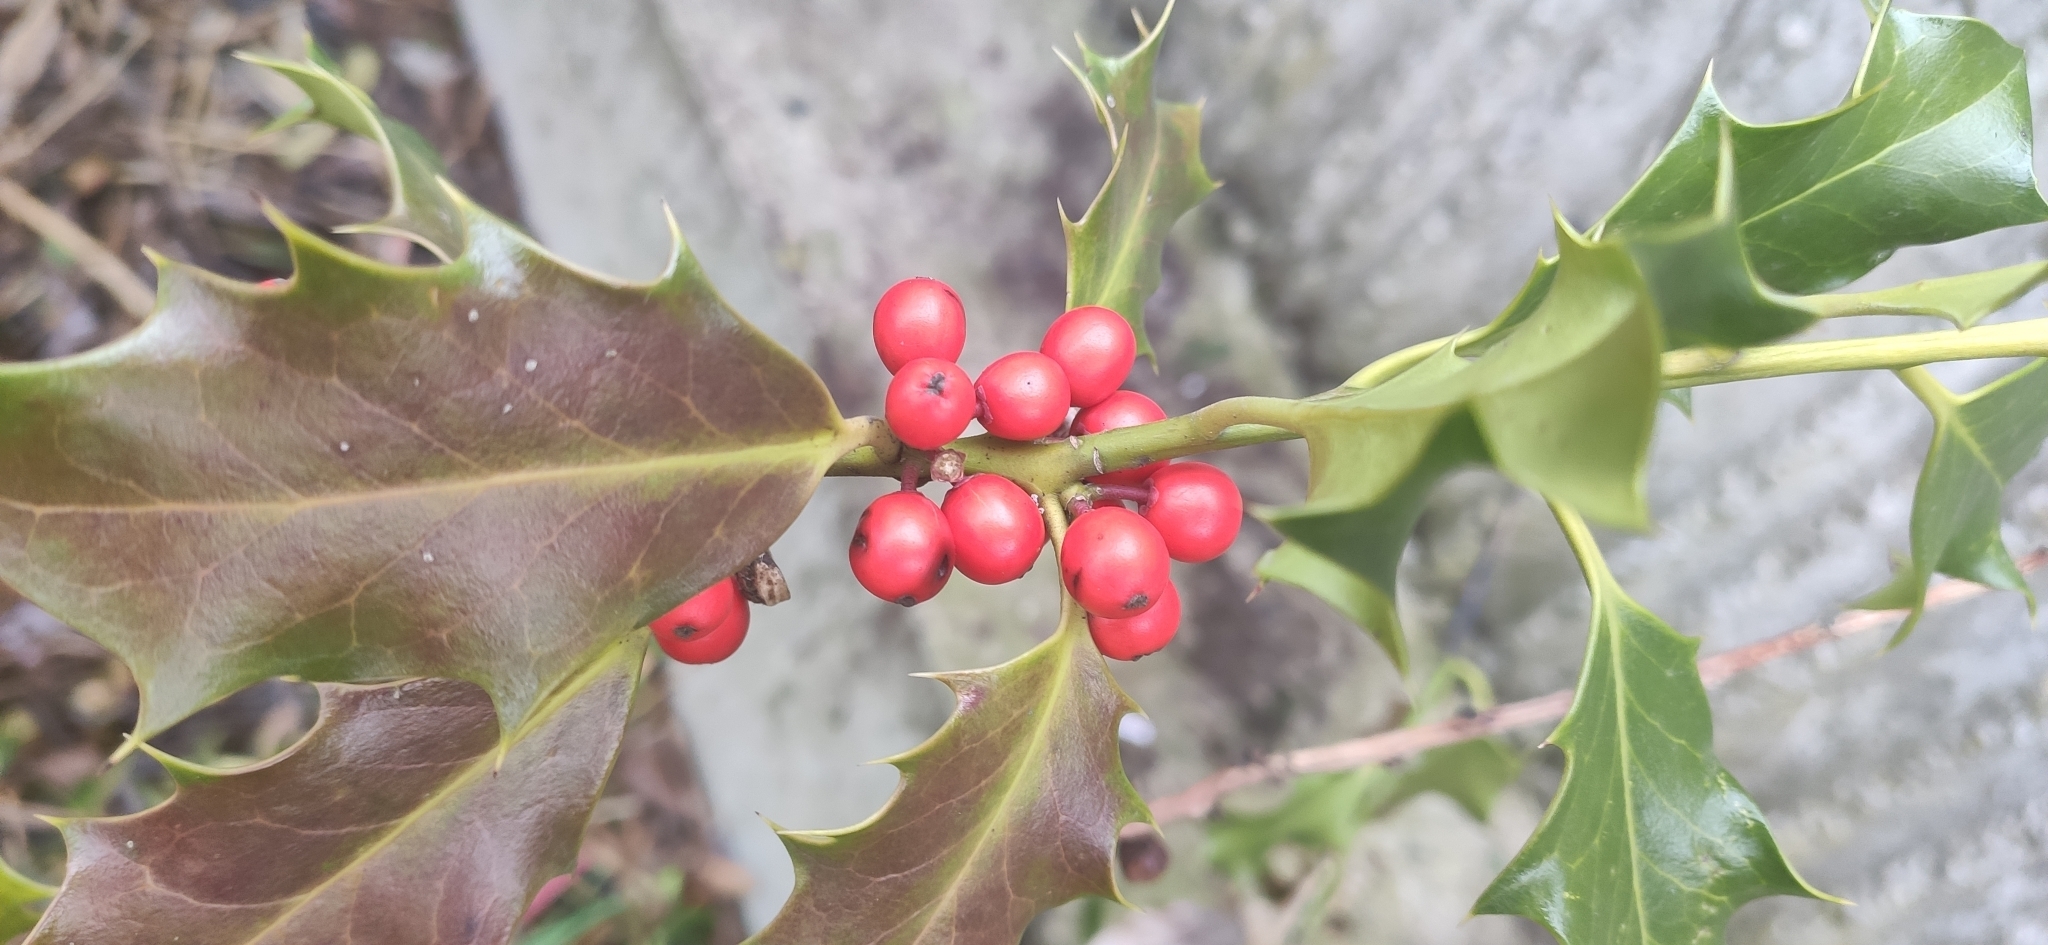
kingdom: Plantae
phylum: Tracheophyta
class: Magnoliopsida
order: Aquifoliales
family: Aquifoliaceae
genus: Ilex
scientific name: Ilex aquifolium
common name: English holly
